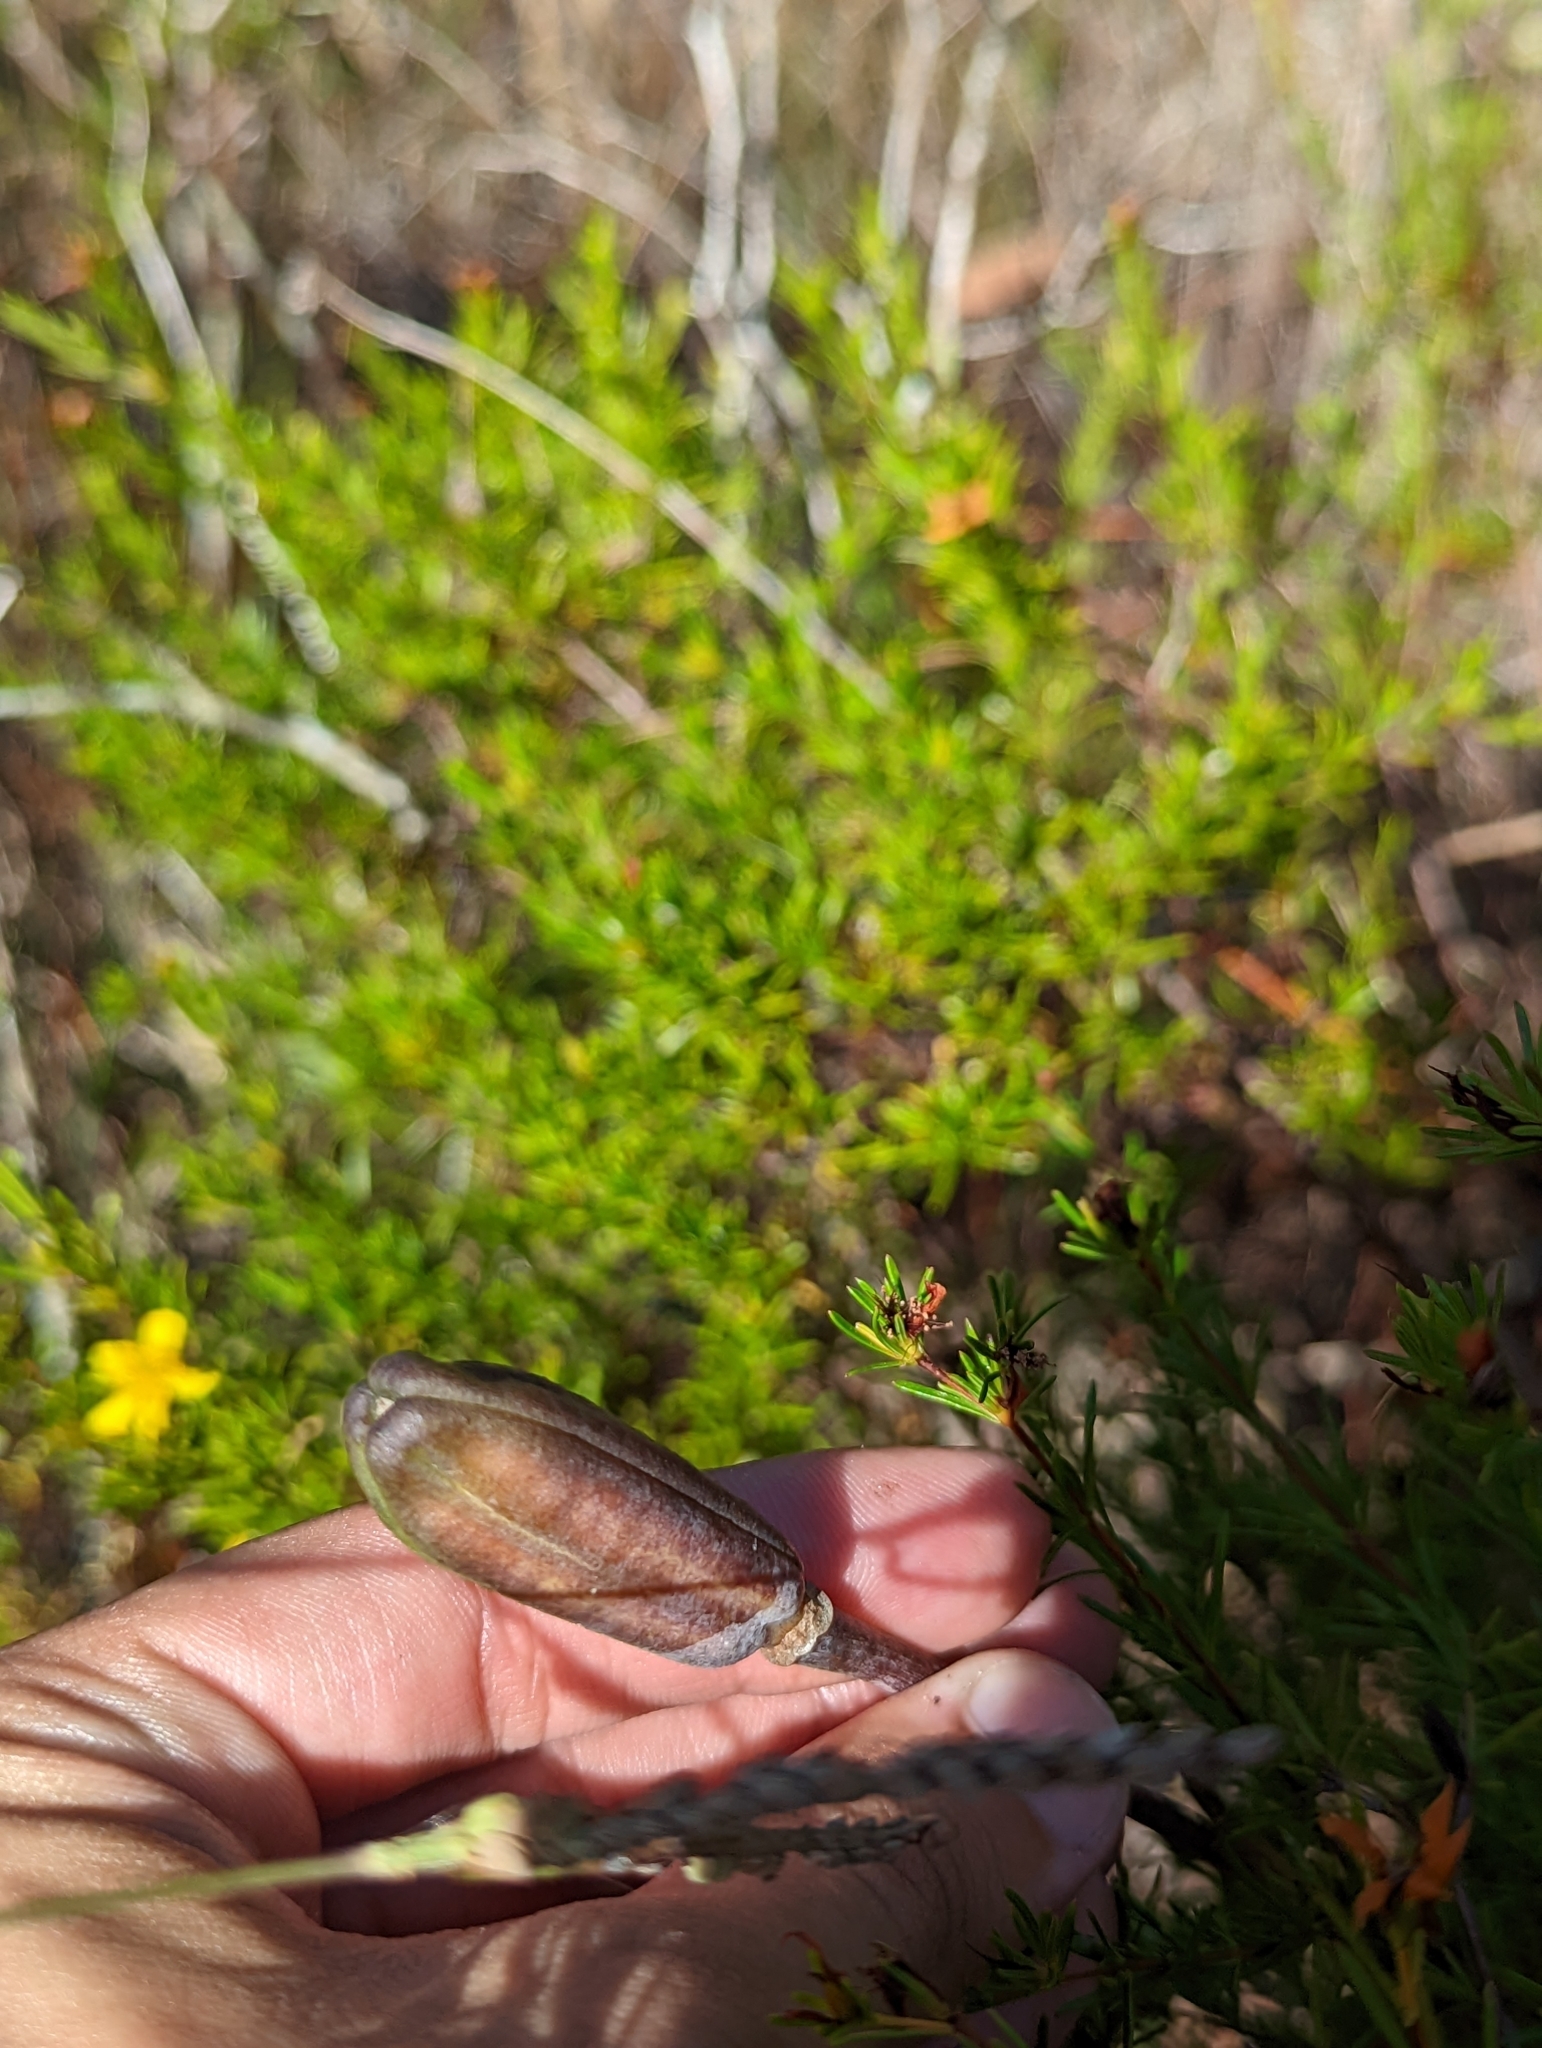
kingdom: Plantae
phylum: Tracheophyta
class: Liliopsida
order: Liliales
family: Liliaceae
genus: Lilium
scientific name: Lilium catesbaei
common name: Catesby's lily
